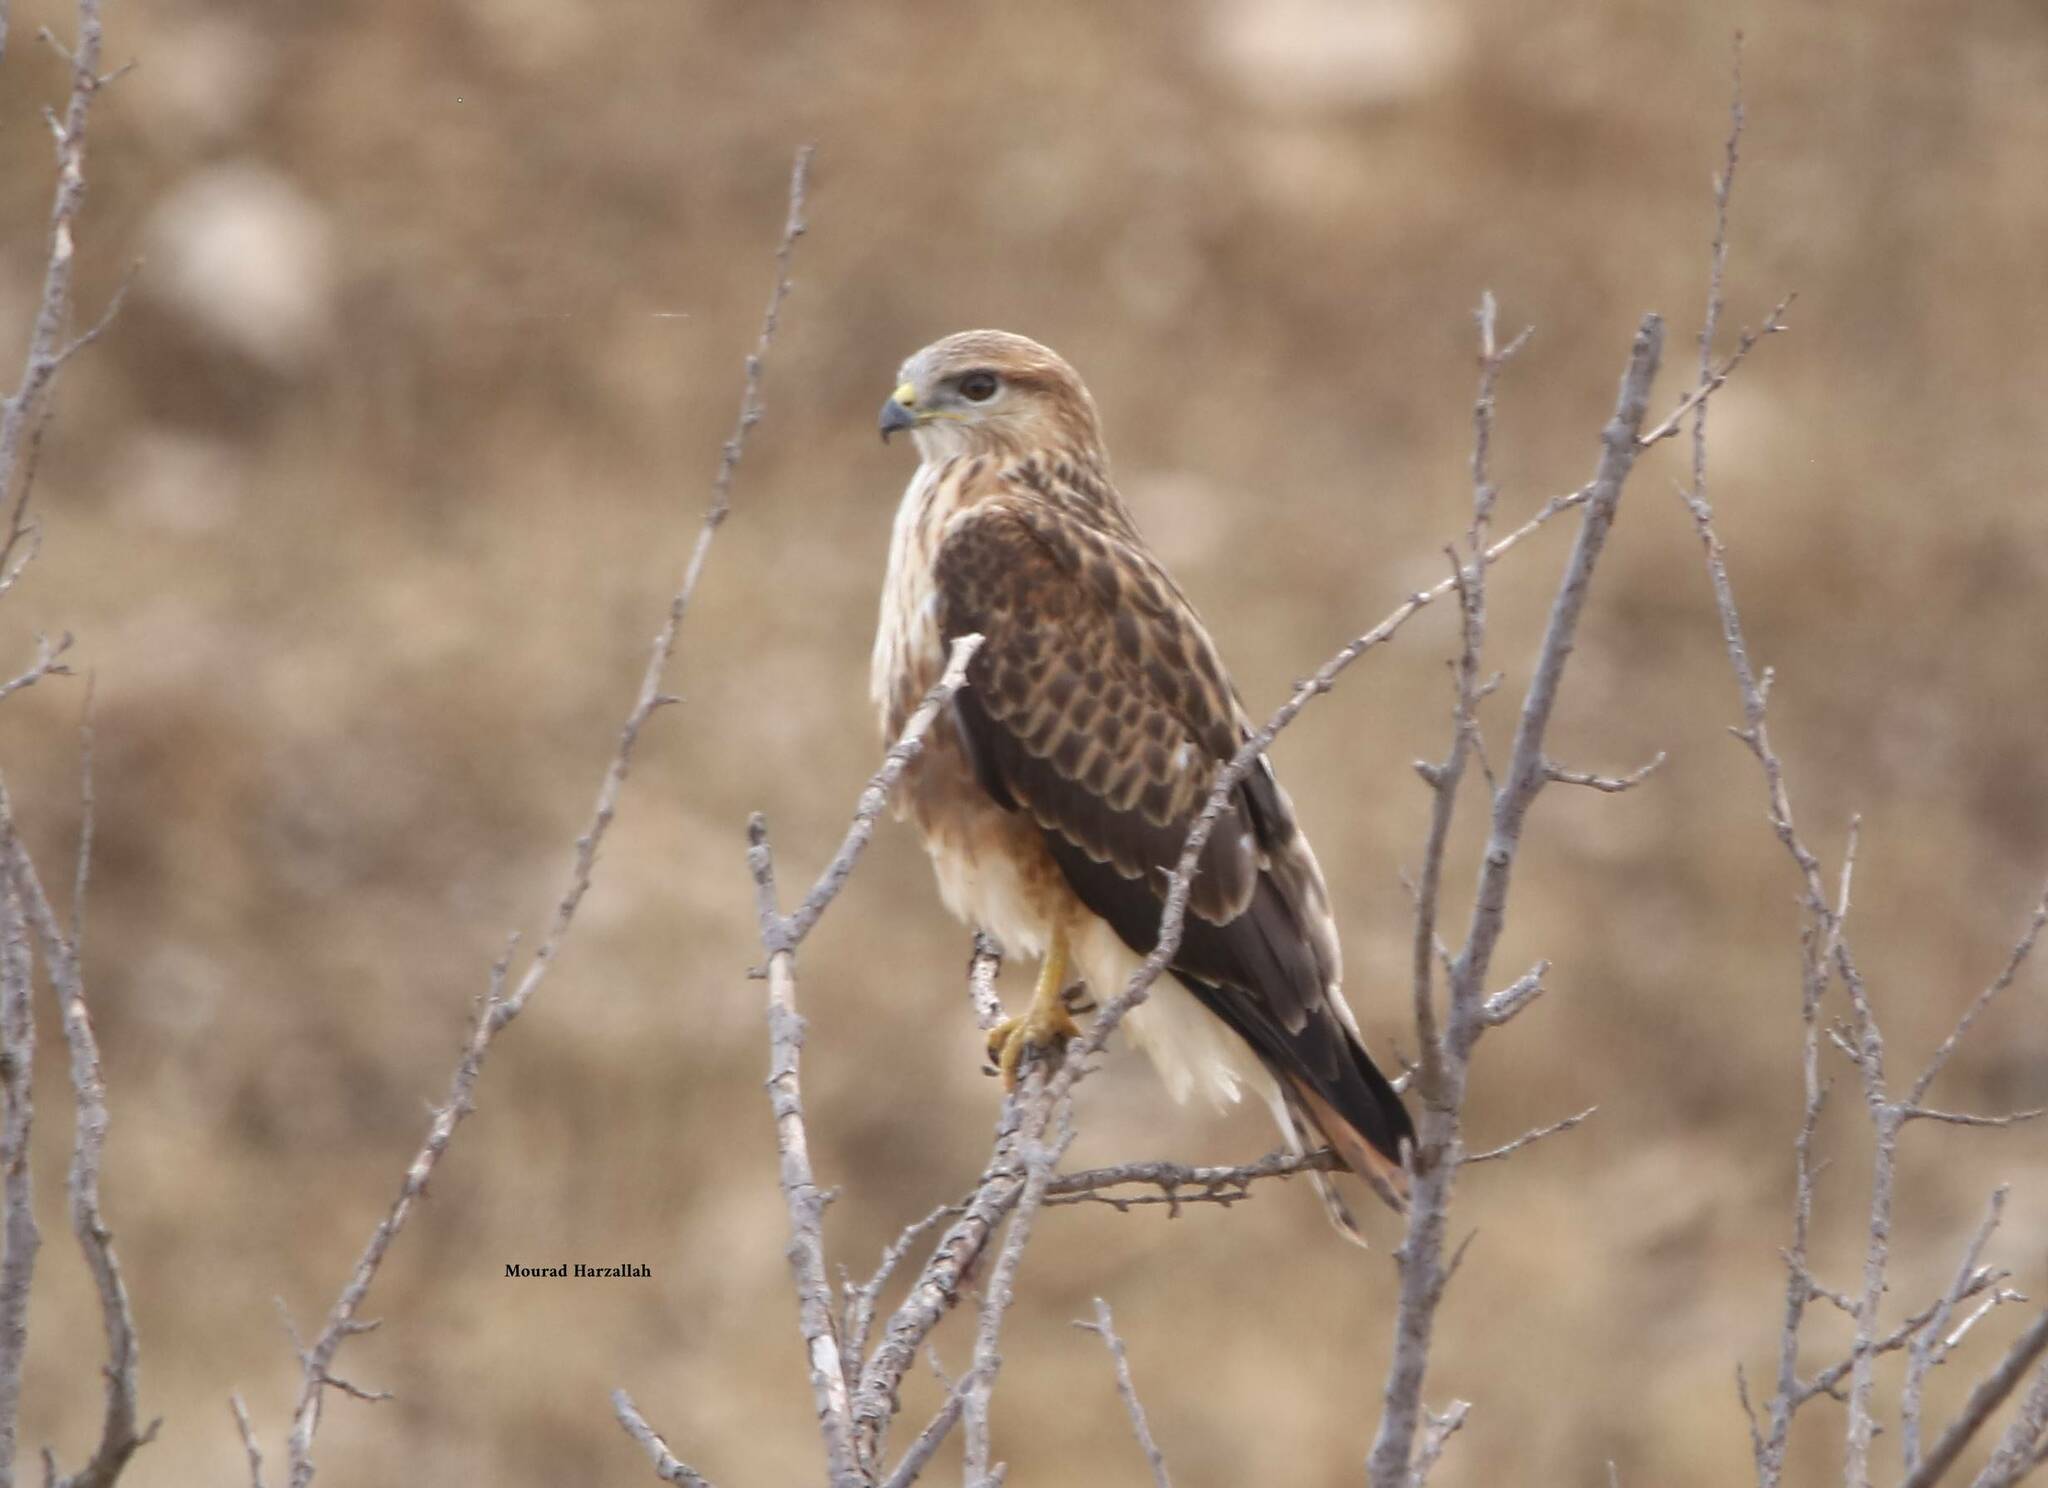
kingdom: Animalia
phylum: Chordata
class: Aves
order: Accipitriformes
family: Accipitridae
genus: Buteo
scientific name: Buteo rufinus
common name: Long-legged buzzard
